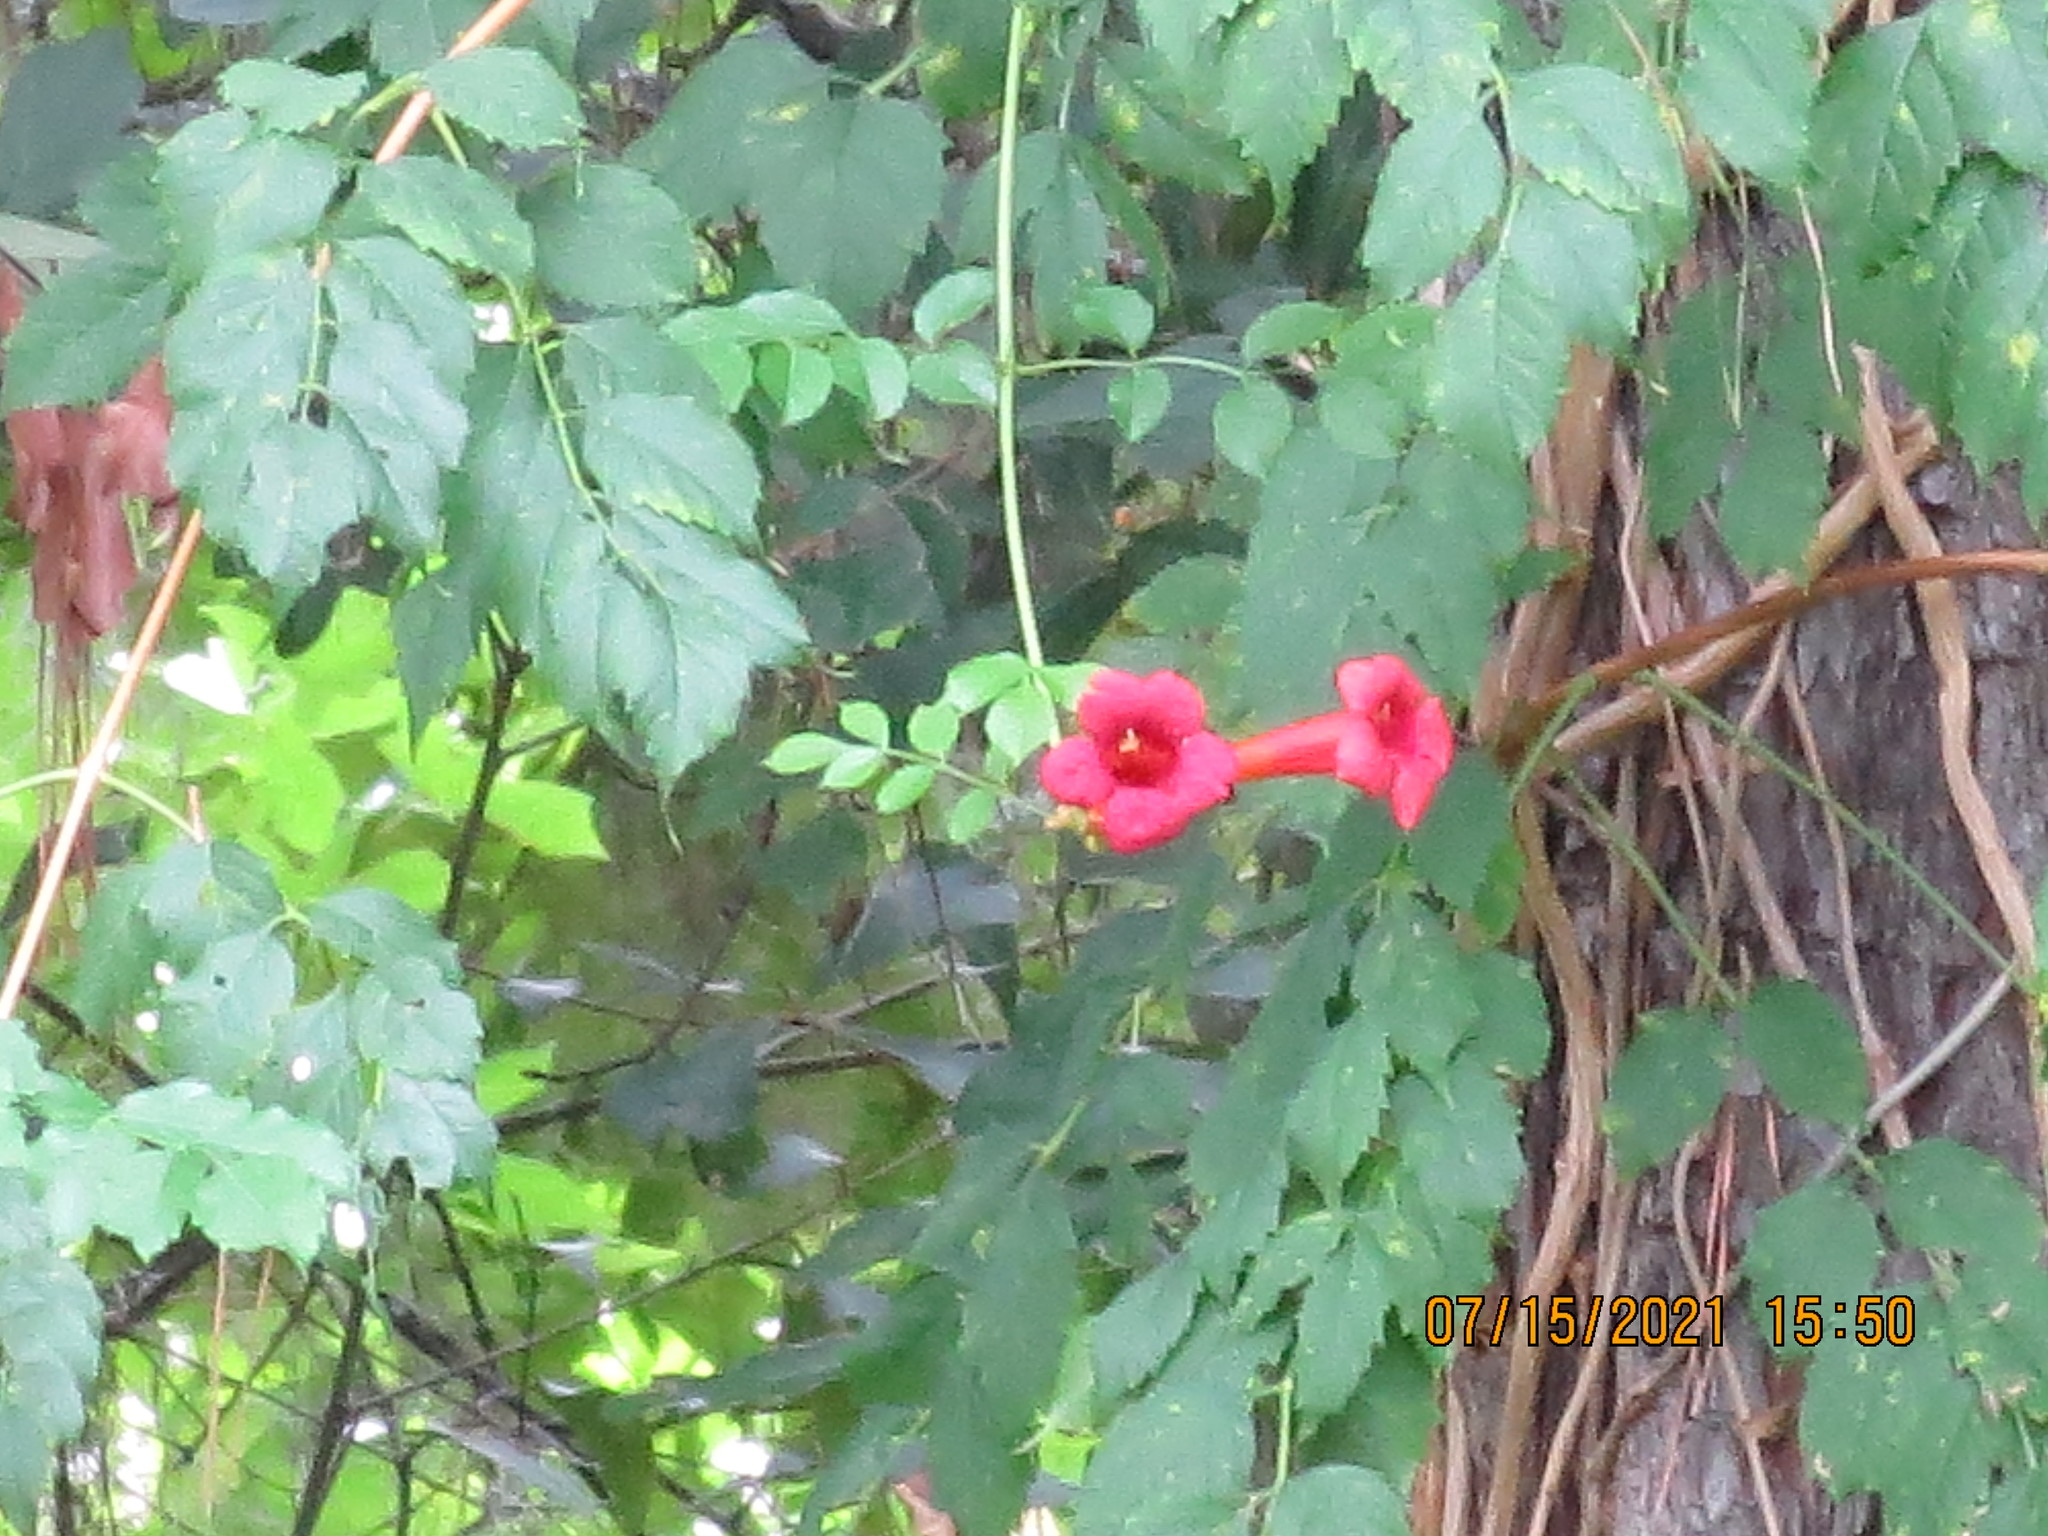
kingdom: Plantae
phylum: Tracheophyta
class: Magnoliopsida
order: Lamiales
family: Bignoniaceae
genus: Campsis
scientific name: Campsis radicans
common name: Trumpet-creeper
